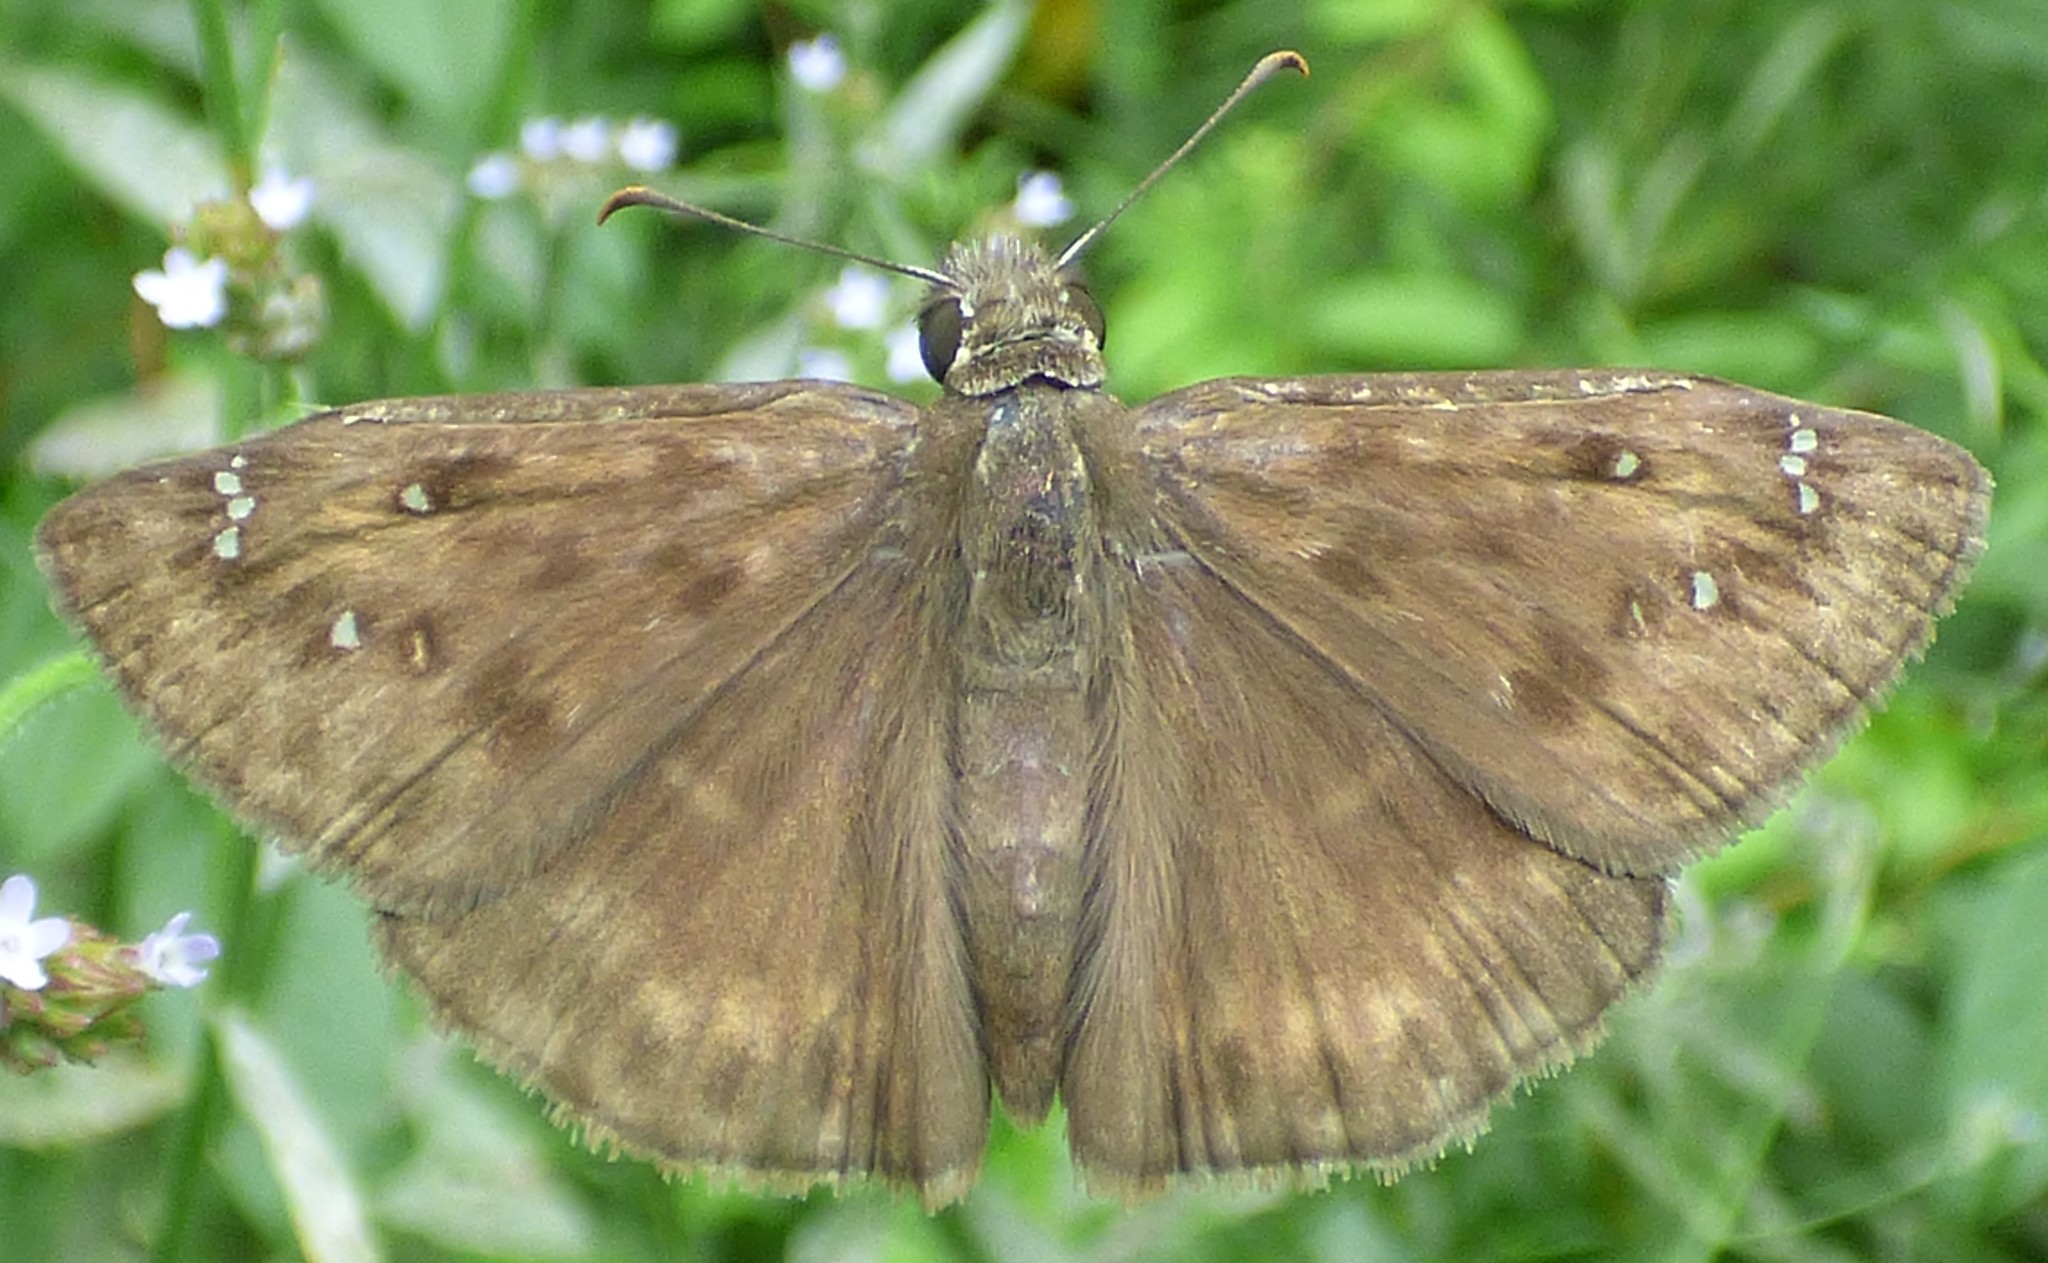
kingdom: Animalia
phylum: Arthropoda
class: Insecta
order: Lepidoptera
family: Hesperiidae
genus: Erynnis
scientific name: Erynnis horatius
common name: Horace's duskywing
